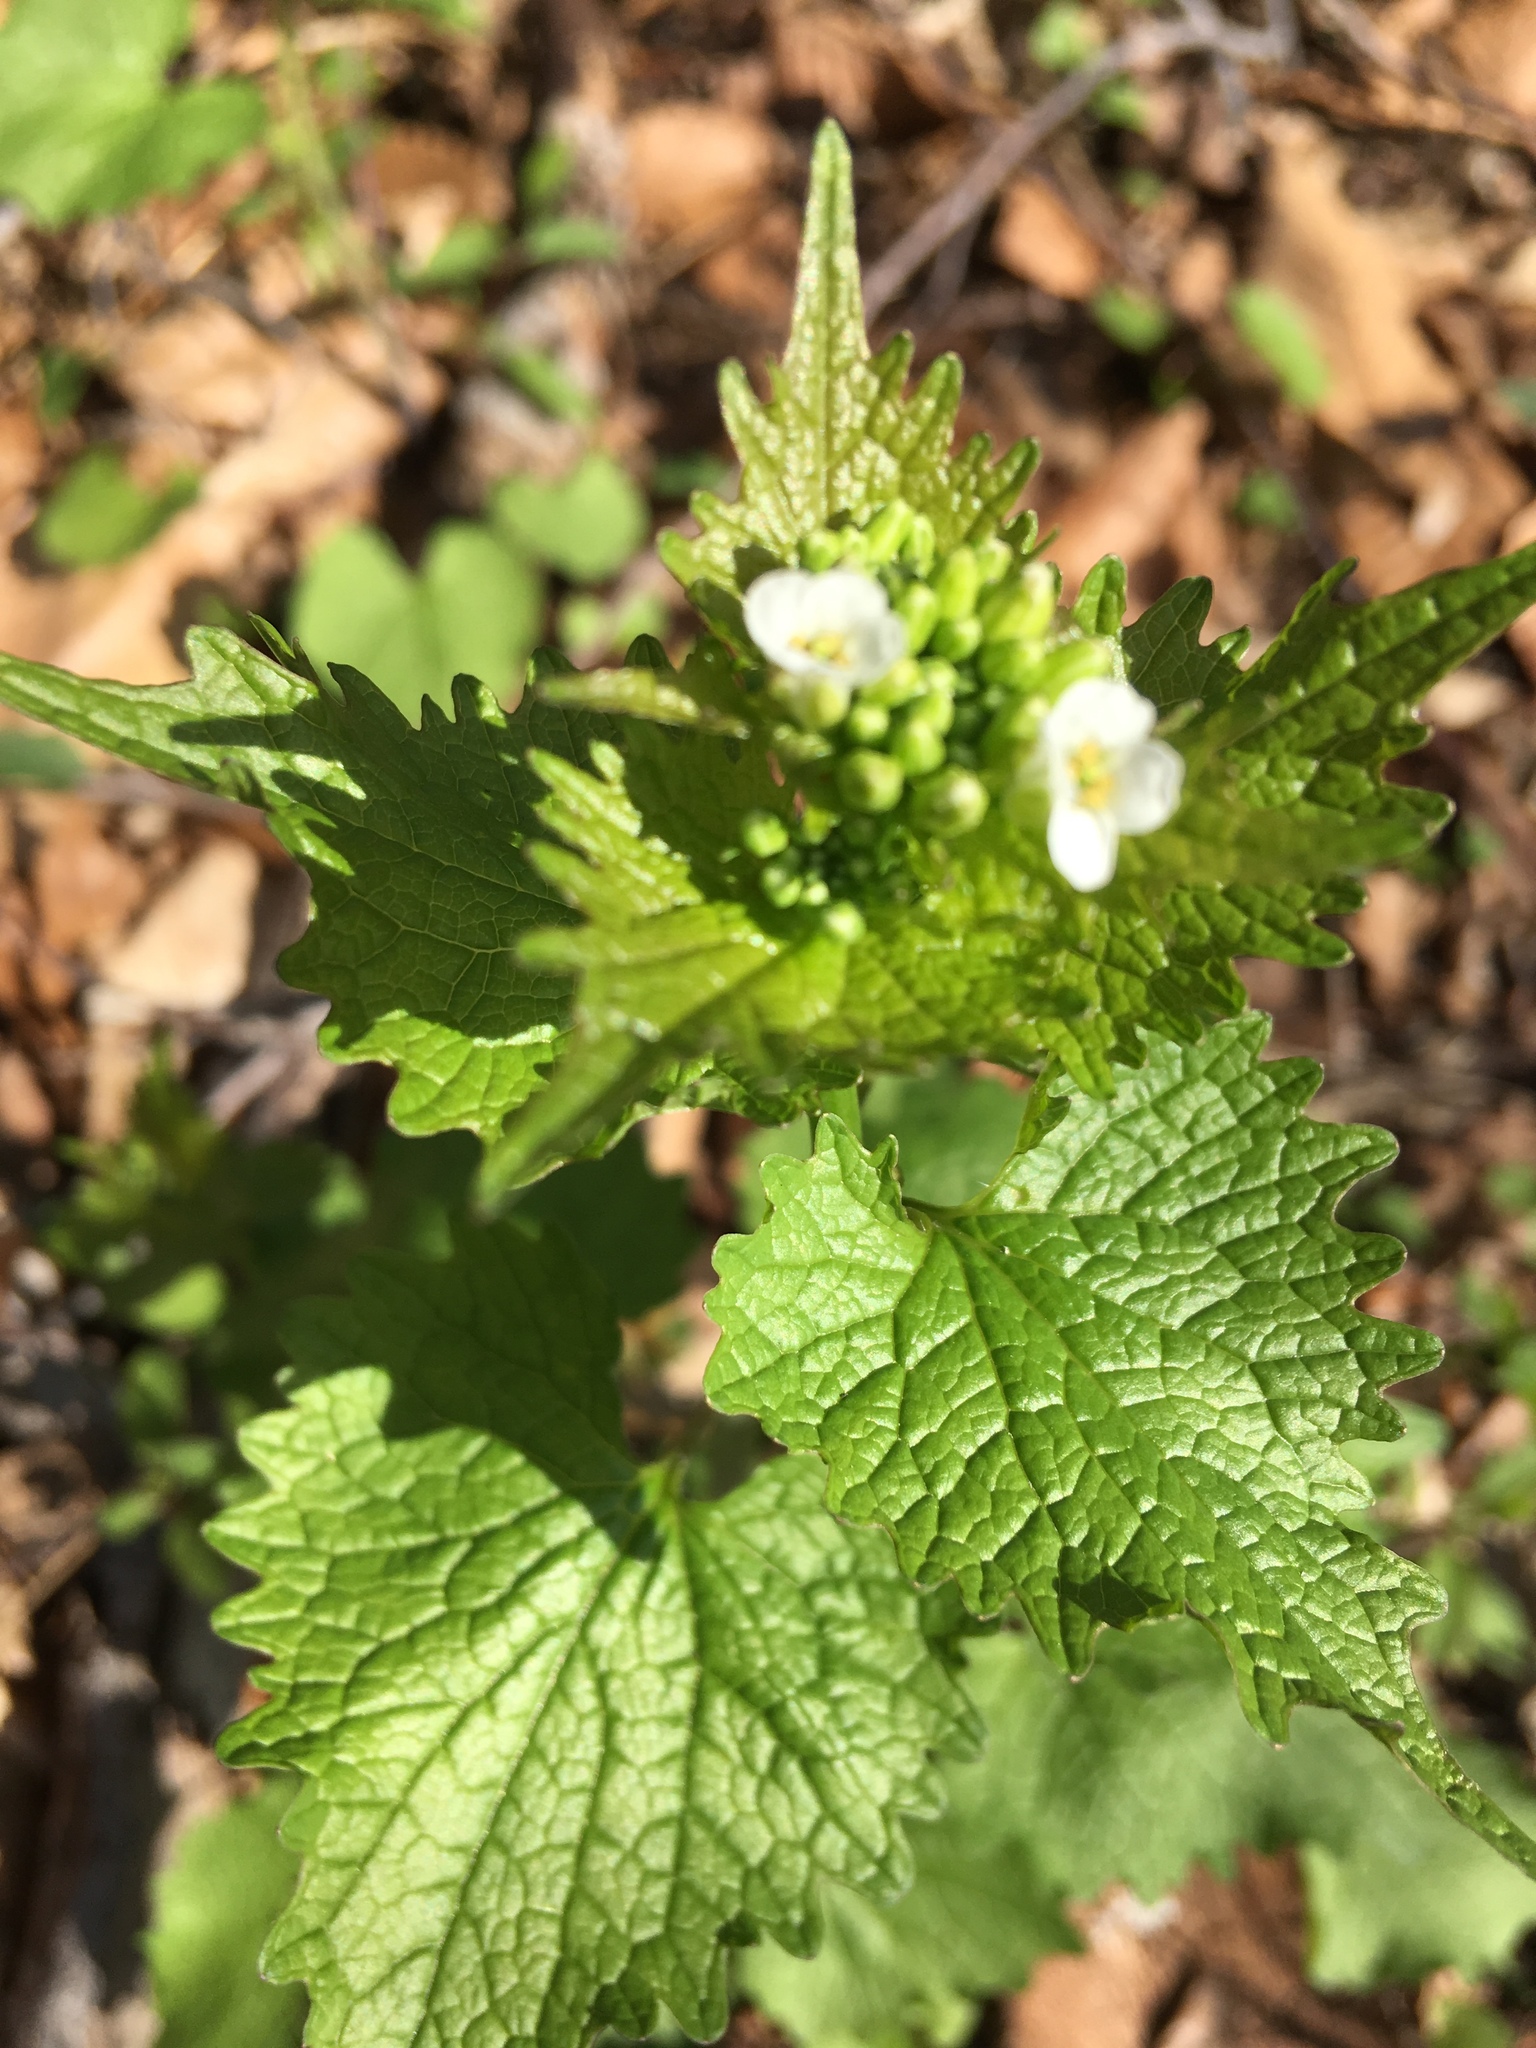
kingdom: Plantae
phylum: Tracheophyta
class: Magnoliopsida
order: Brassicales
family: Brassicaceae
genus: Alliaria
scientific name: Alliaria petiolata
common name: Garlic mustard
